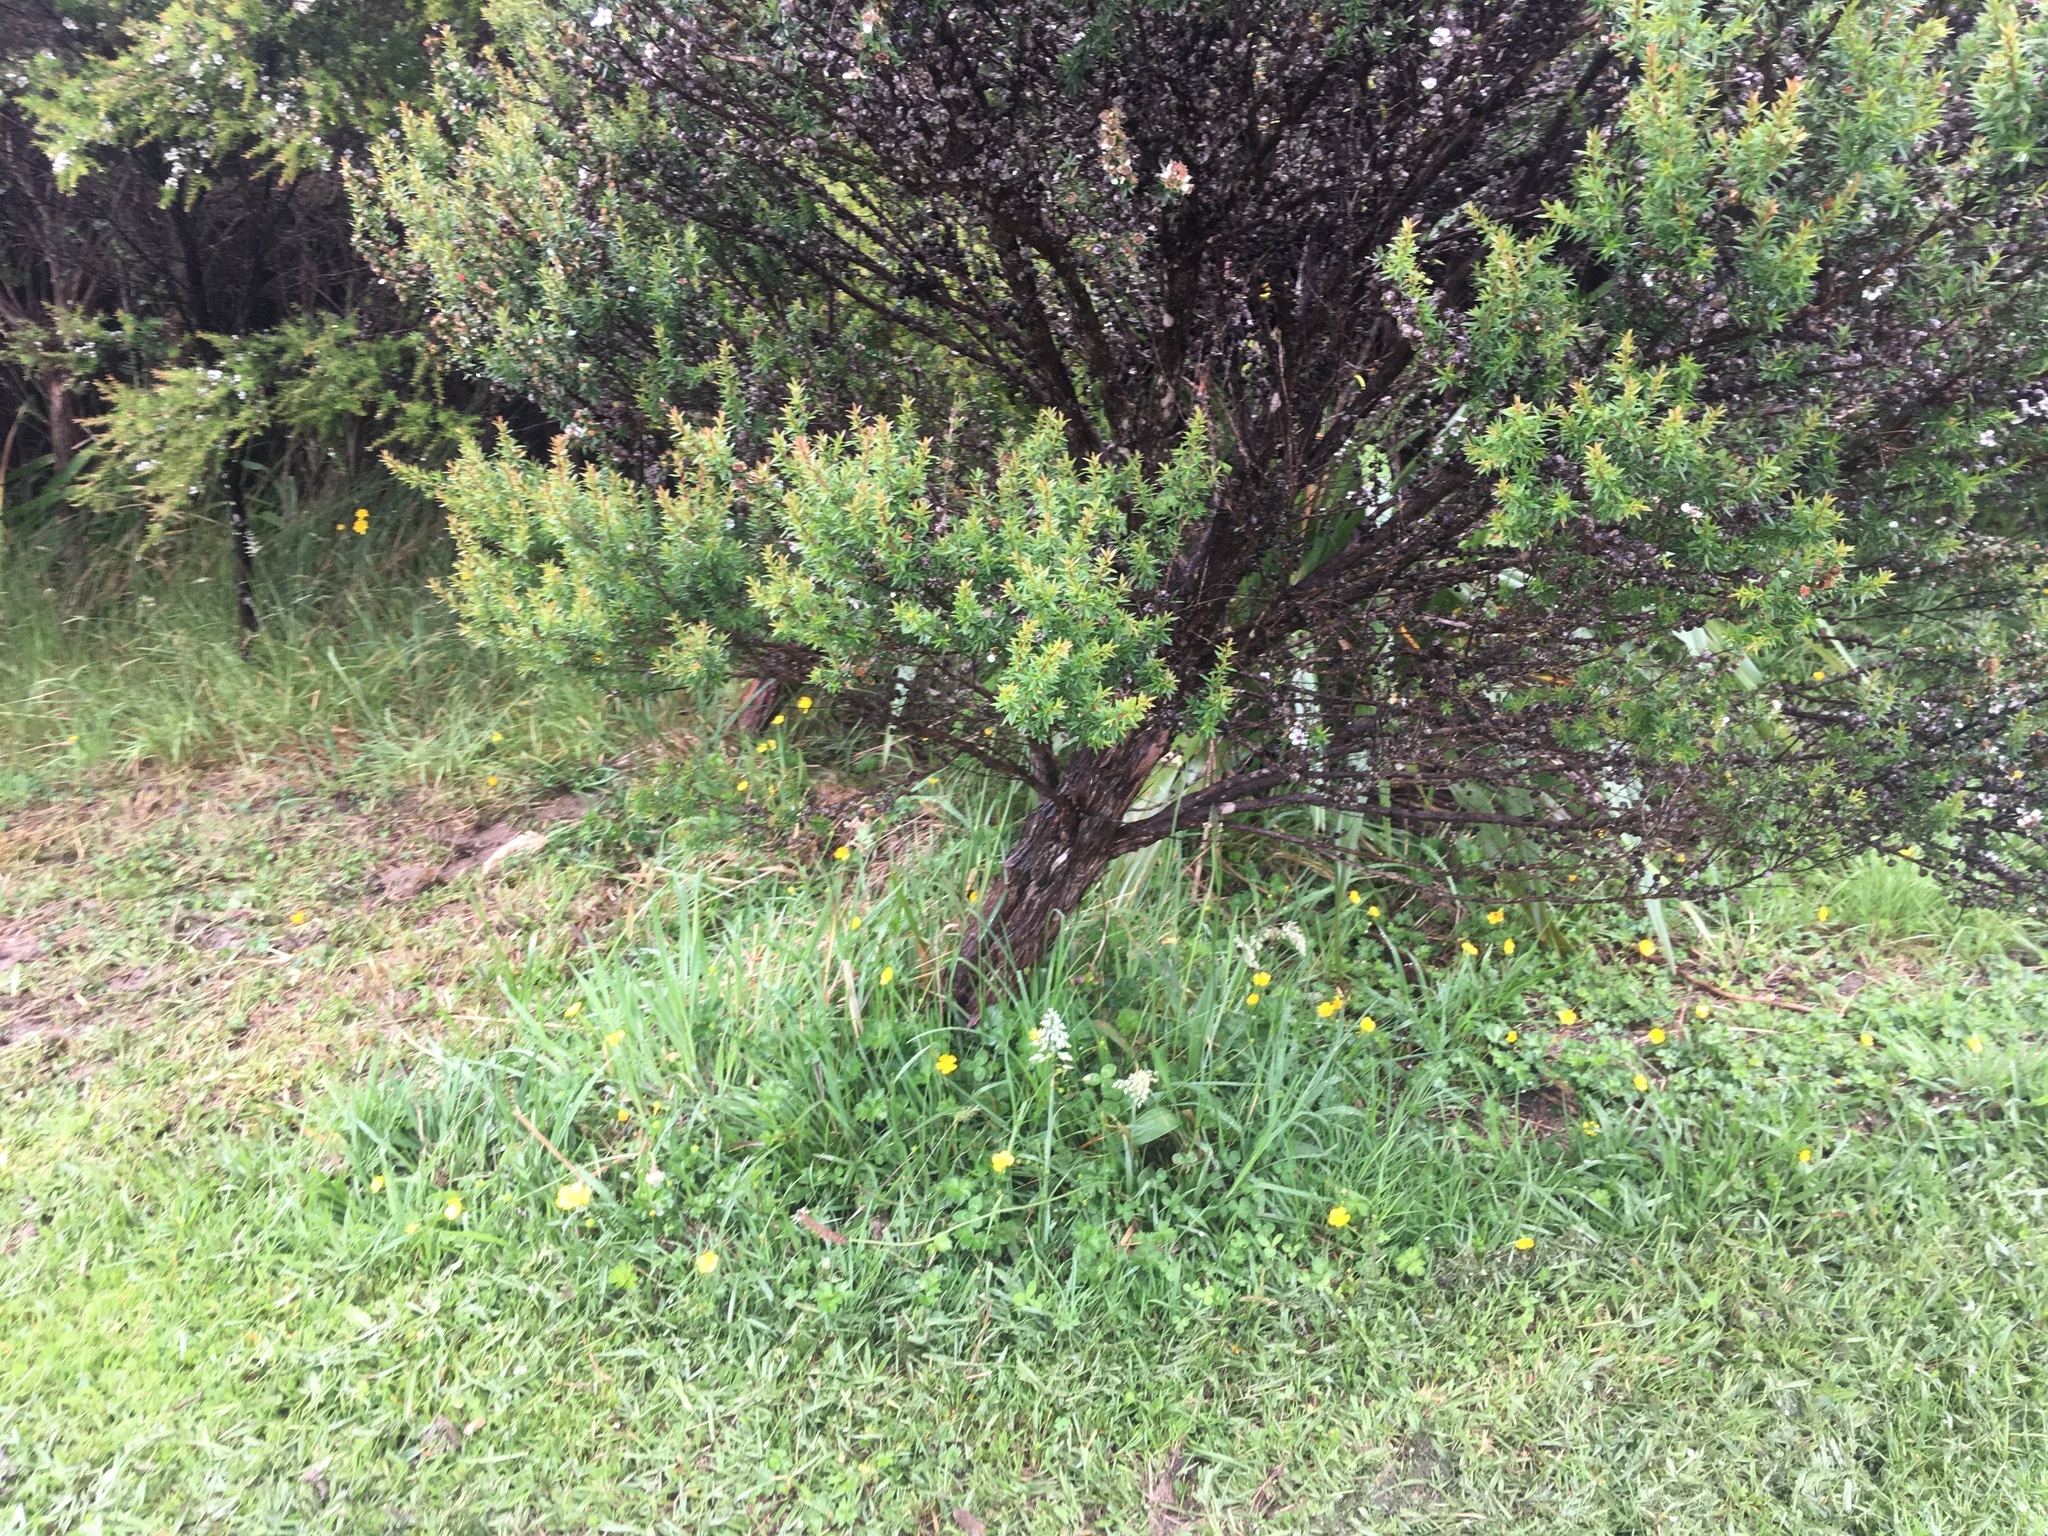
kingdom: Plantae
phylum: Tracheophyta
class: Magnoliopsida
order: Myrtales
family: Myrtaceae
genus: Leptospermum
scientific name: Leptospermum scoparium
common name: Broom tea-tree
